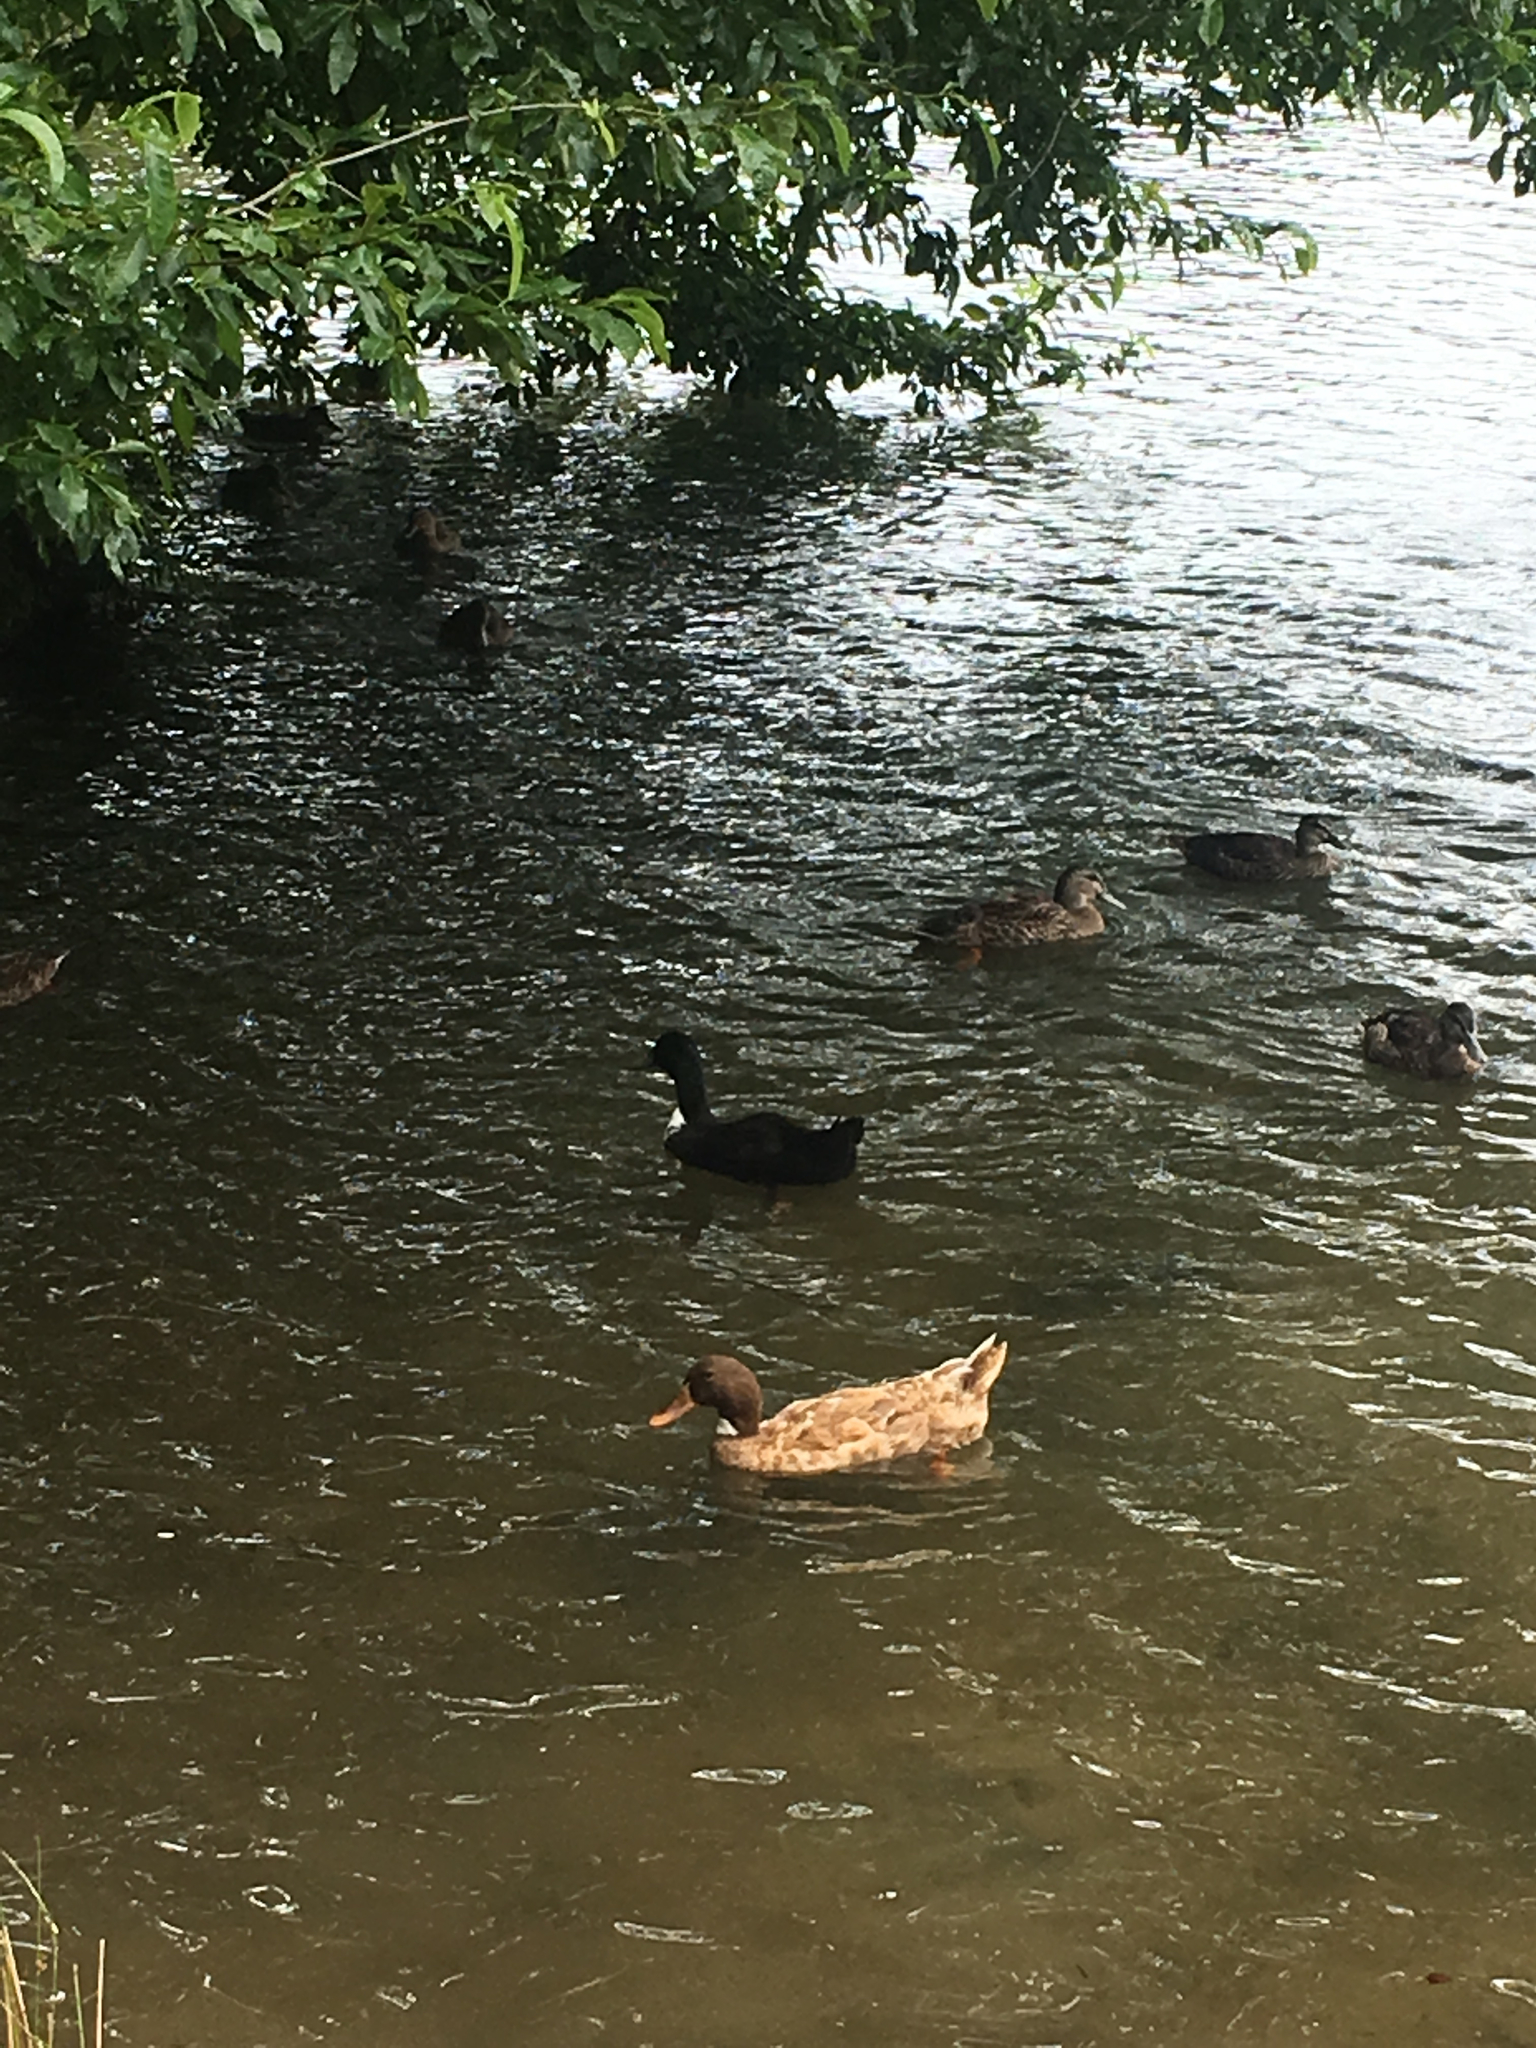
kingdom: Animalia
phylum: Chordata
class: Aves
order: Anseriformes
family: Anatidae
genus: Anas
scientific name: Anas platyrhynchos
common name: Mallard
